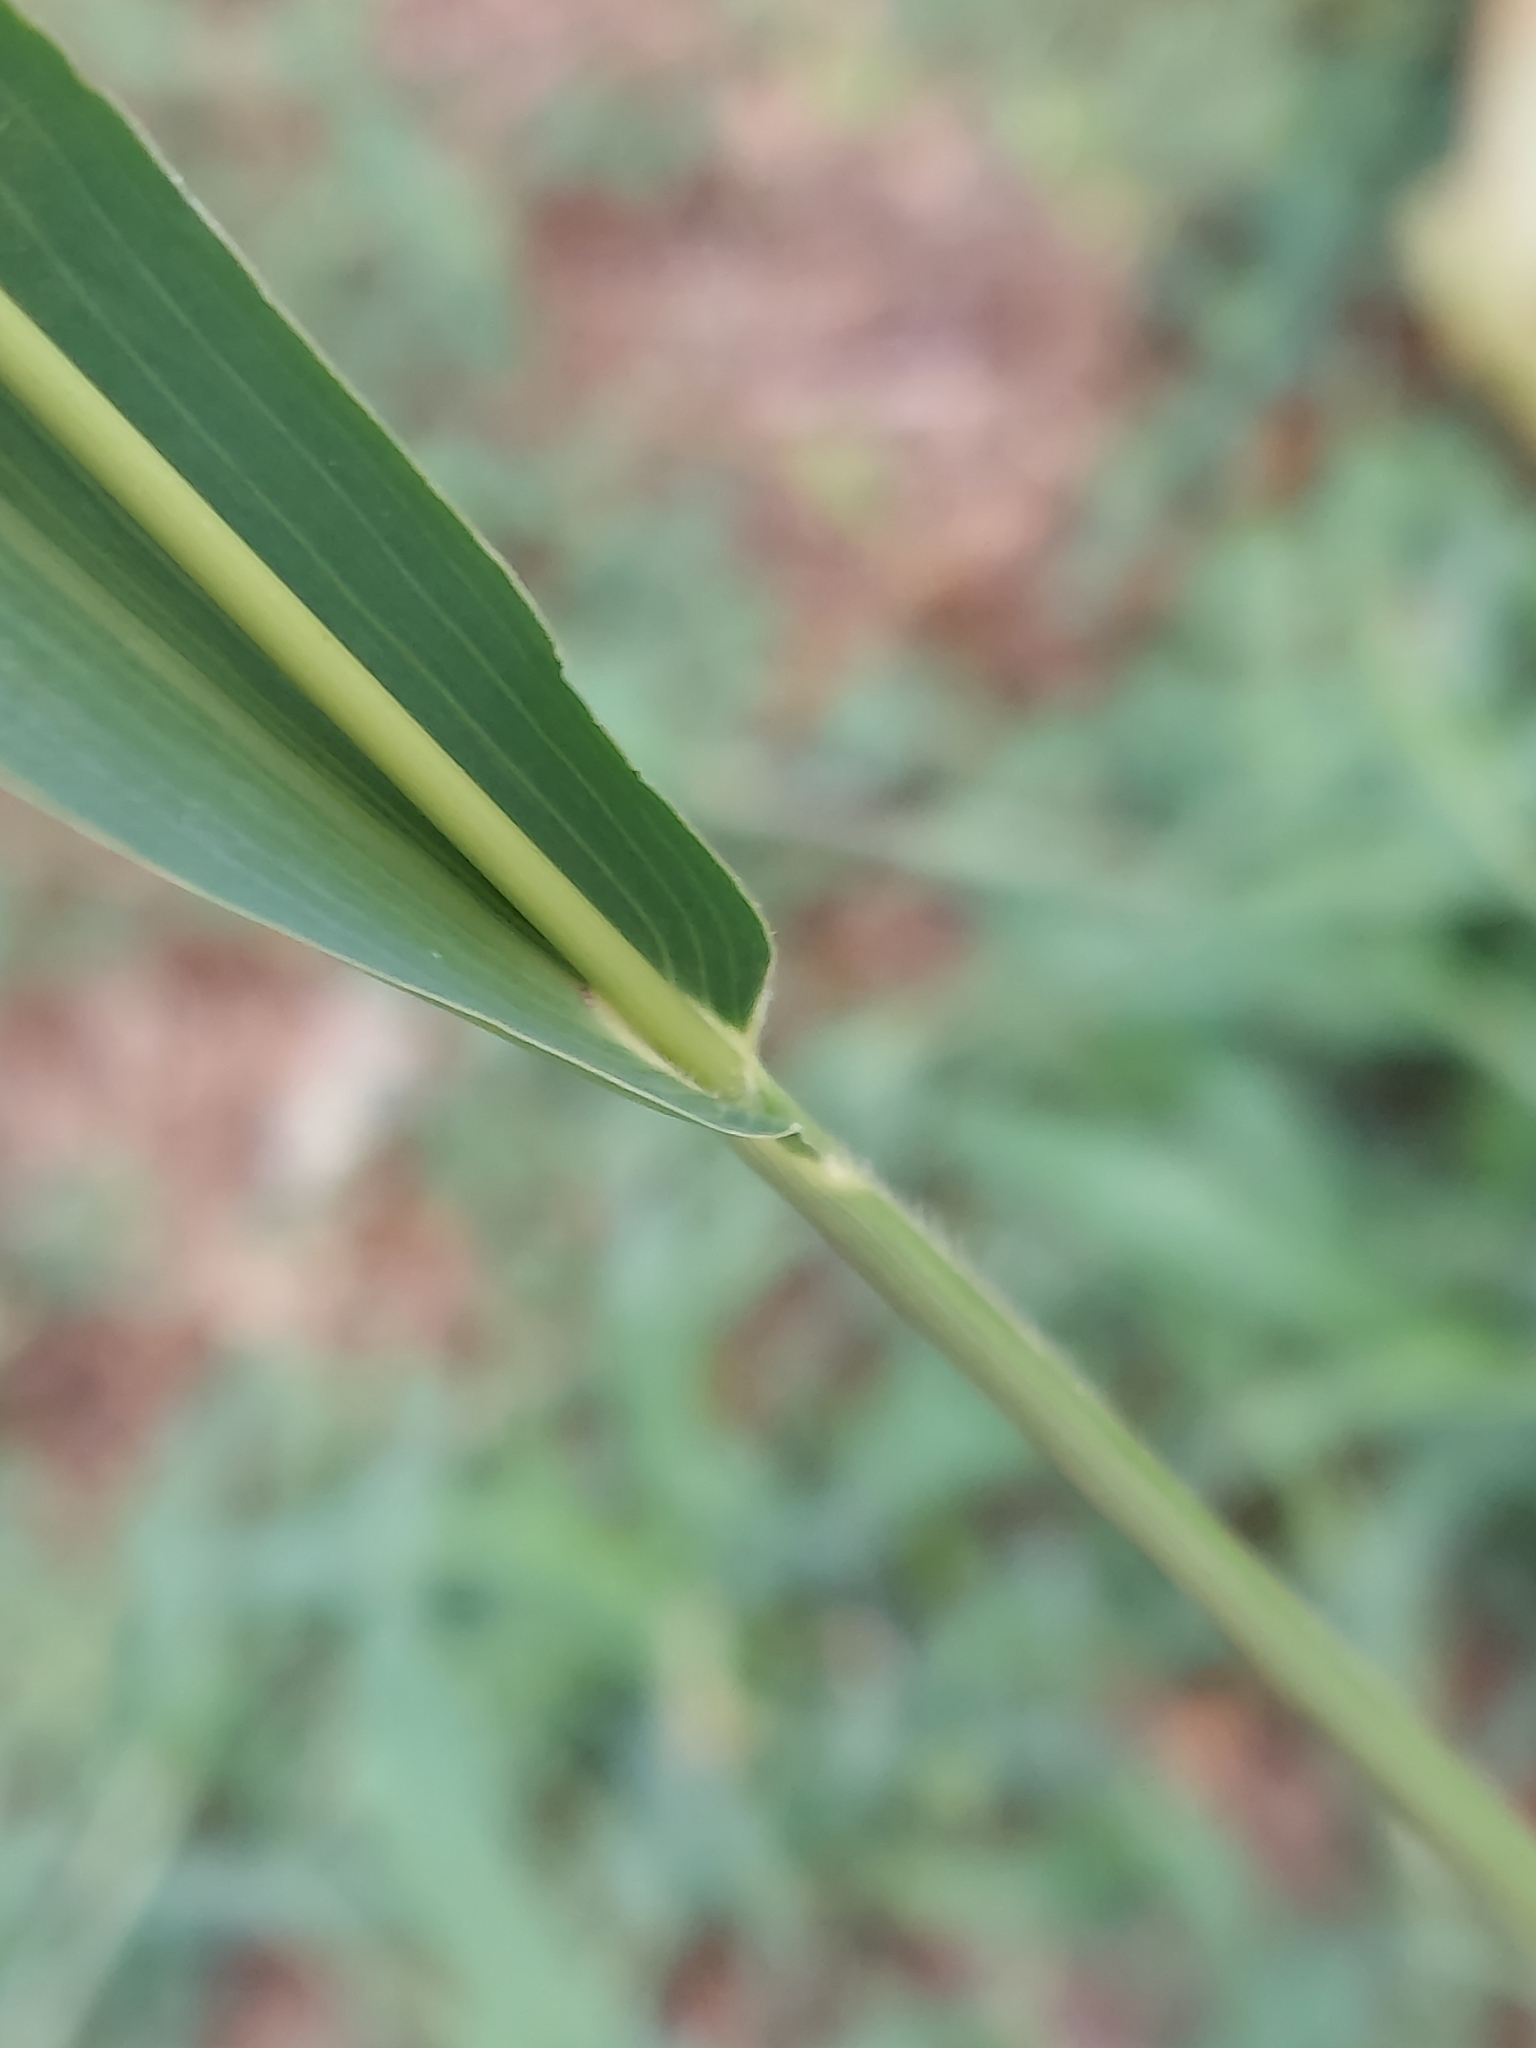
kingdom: Plantae
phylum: Tracheophyta
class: Liliopsida
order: Poales
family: Poaceae
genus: Setaria
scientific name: Setaria viridis
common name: Green bristlegrass
